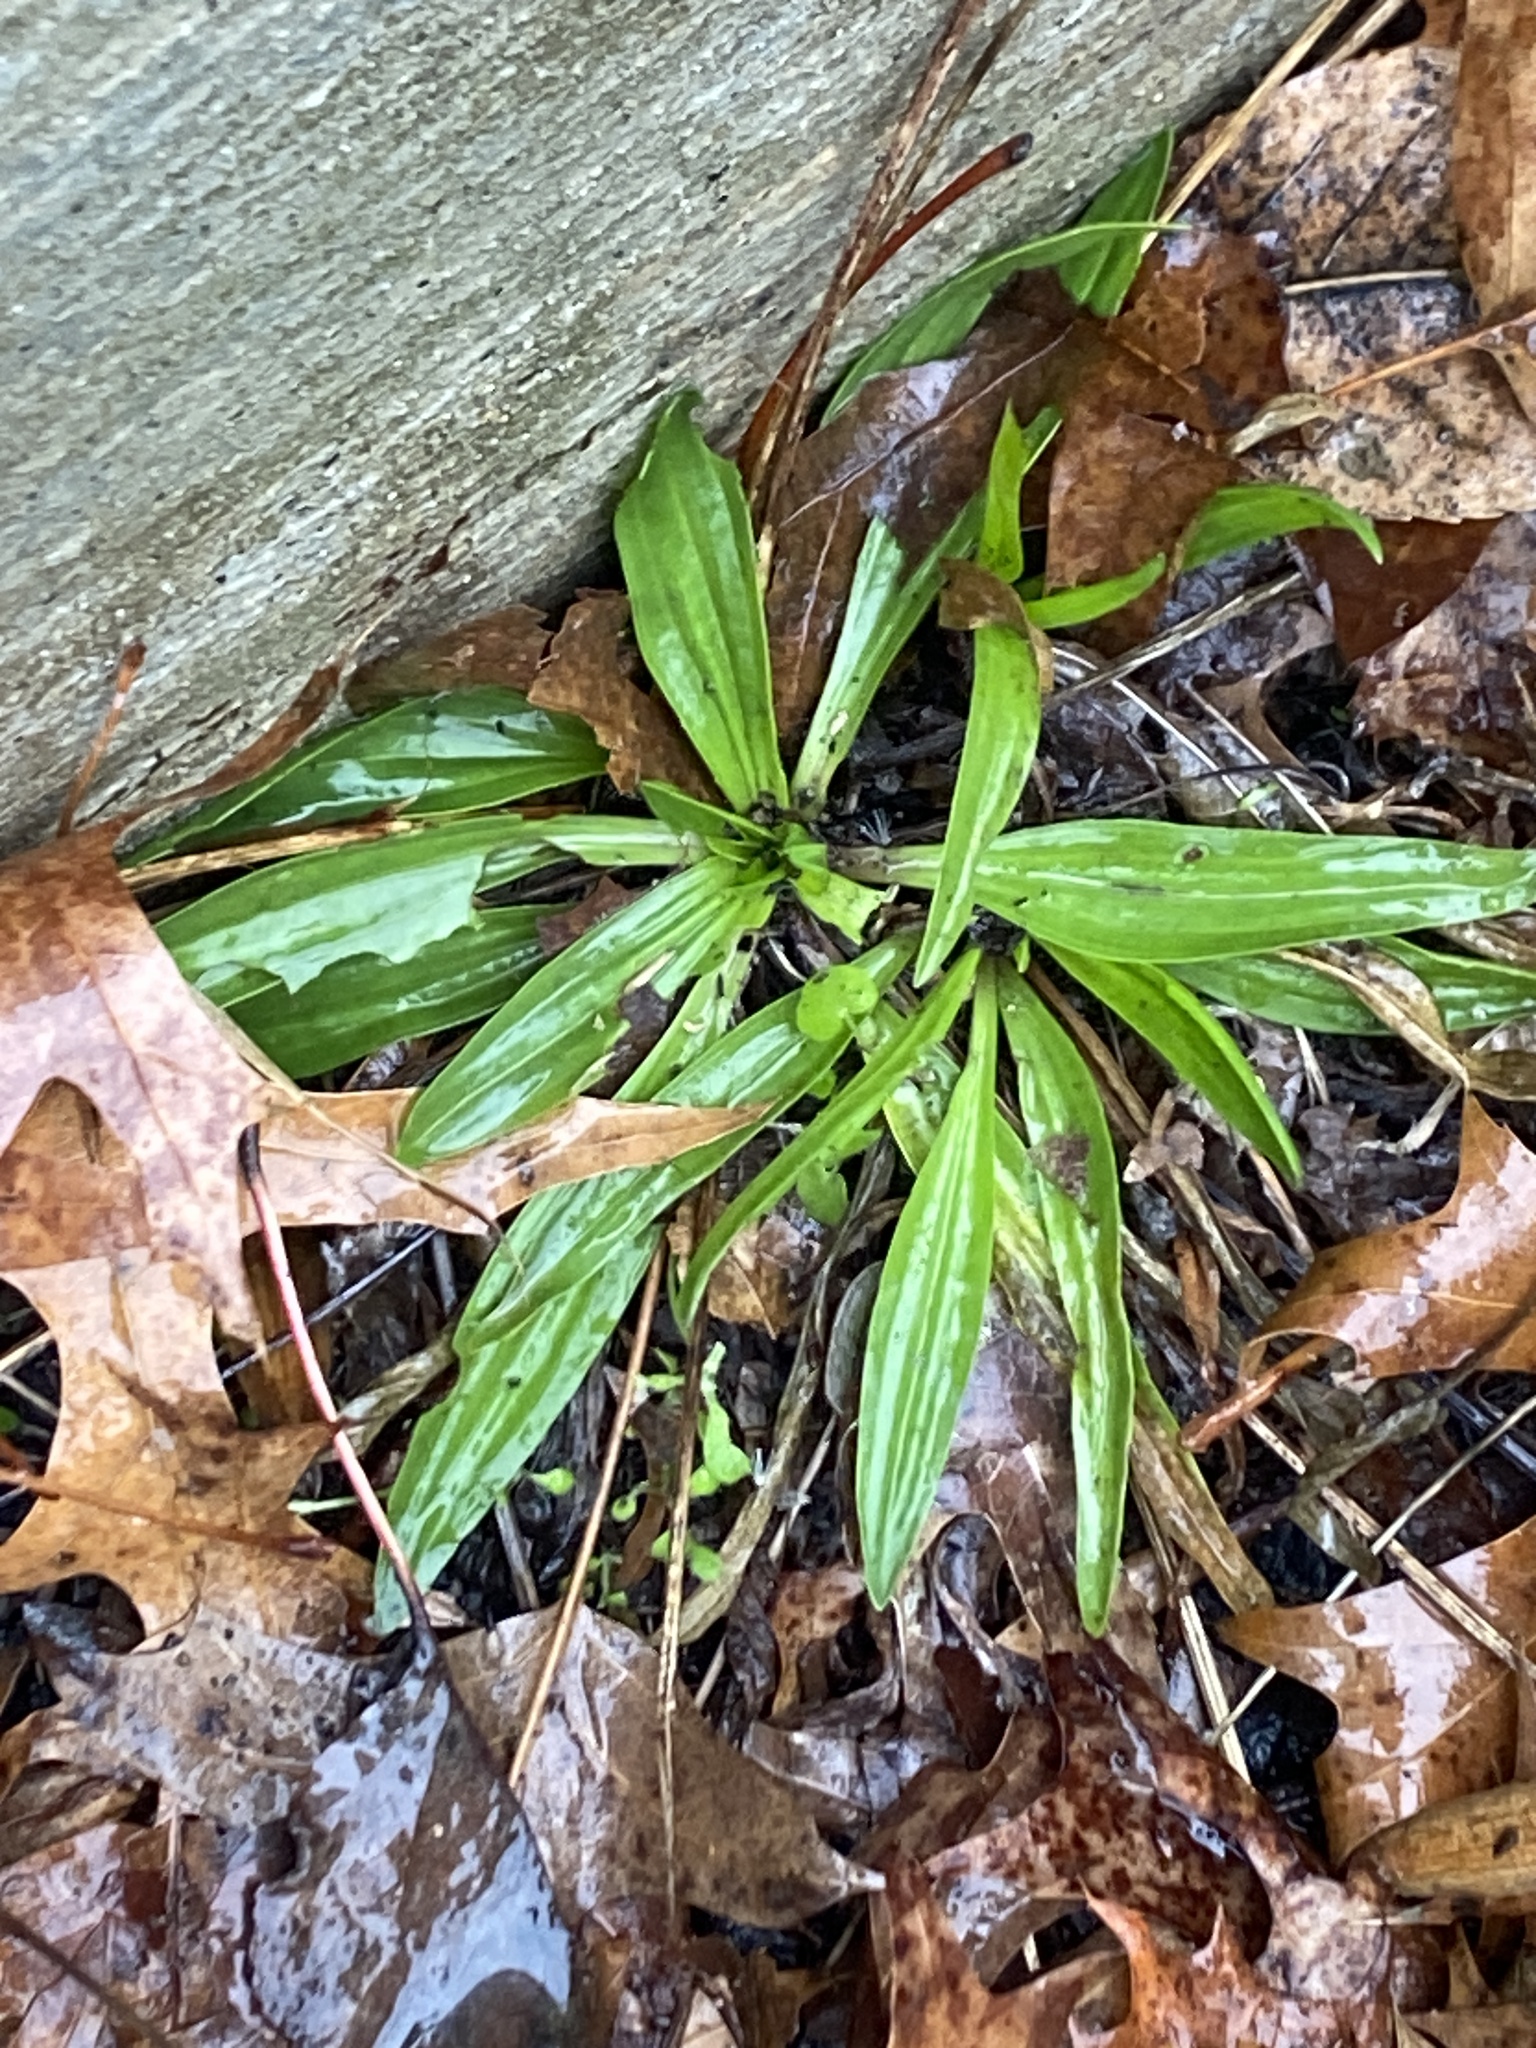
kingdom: Plantae
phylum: Tracheophyta
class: Magnoliopsida
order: Lamiales
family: Plantaginaceae
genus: Plantago
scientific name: Plantago lanceolata
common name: Ribwort plantain
